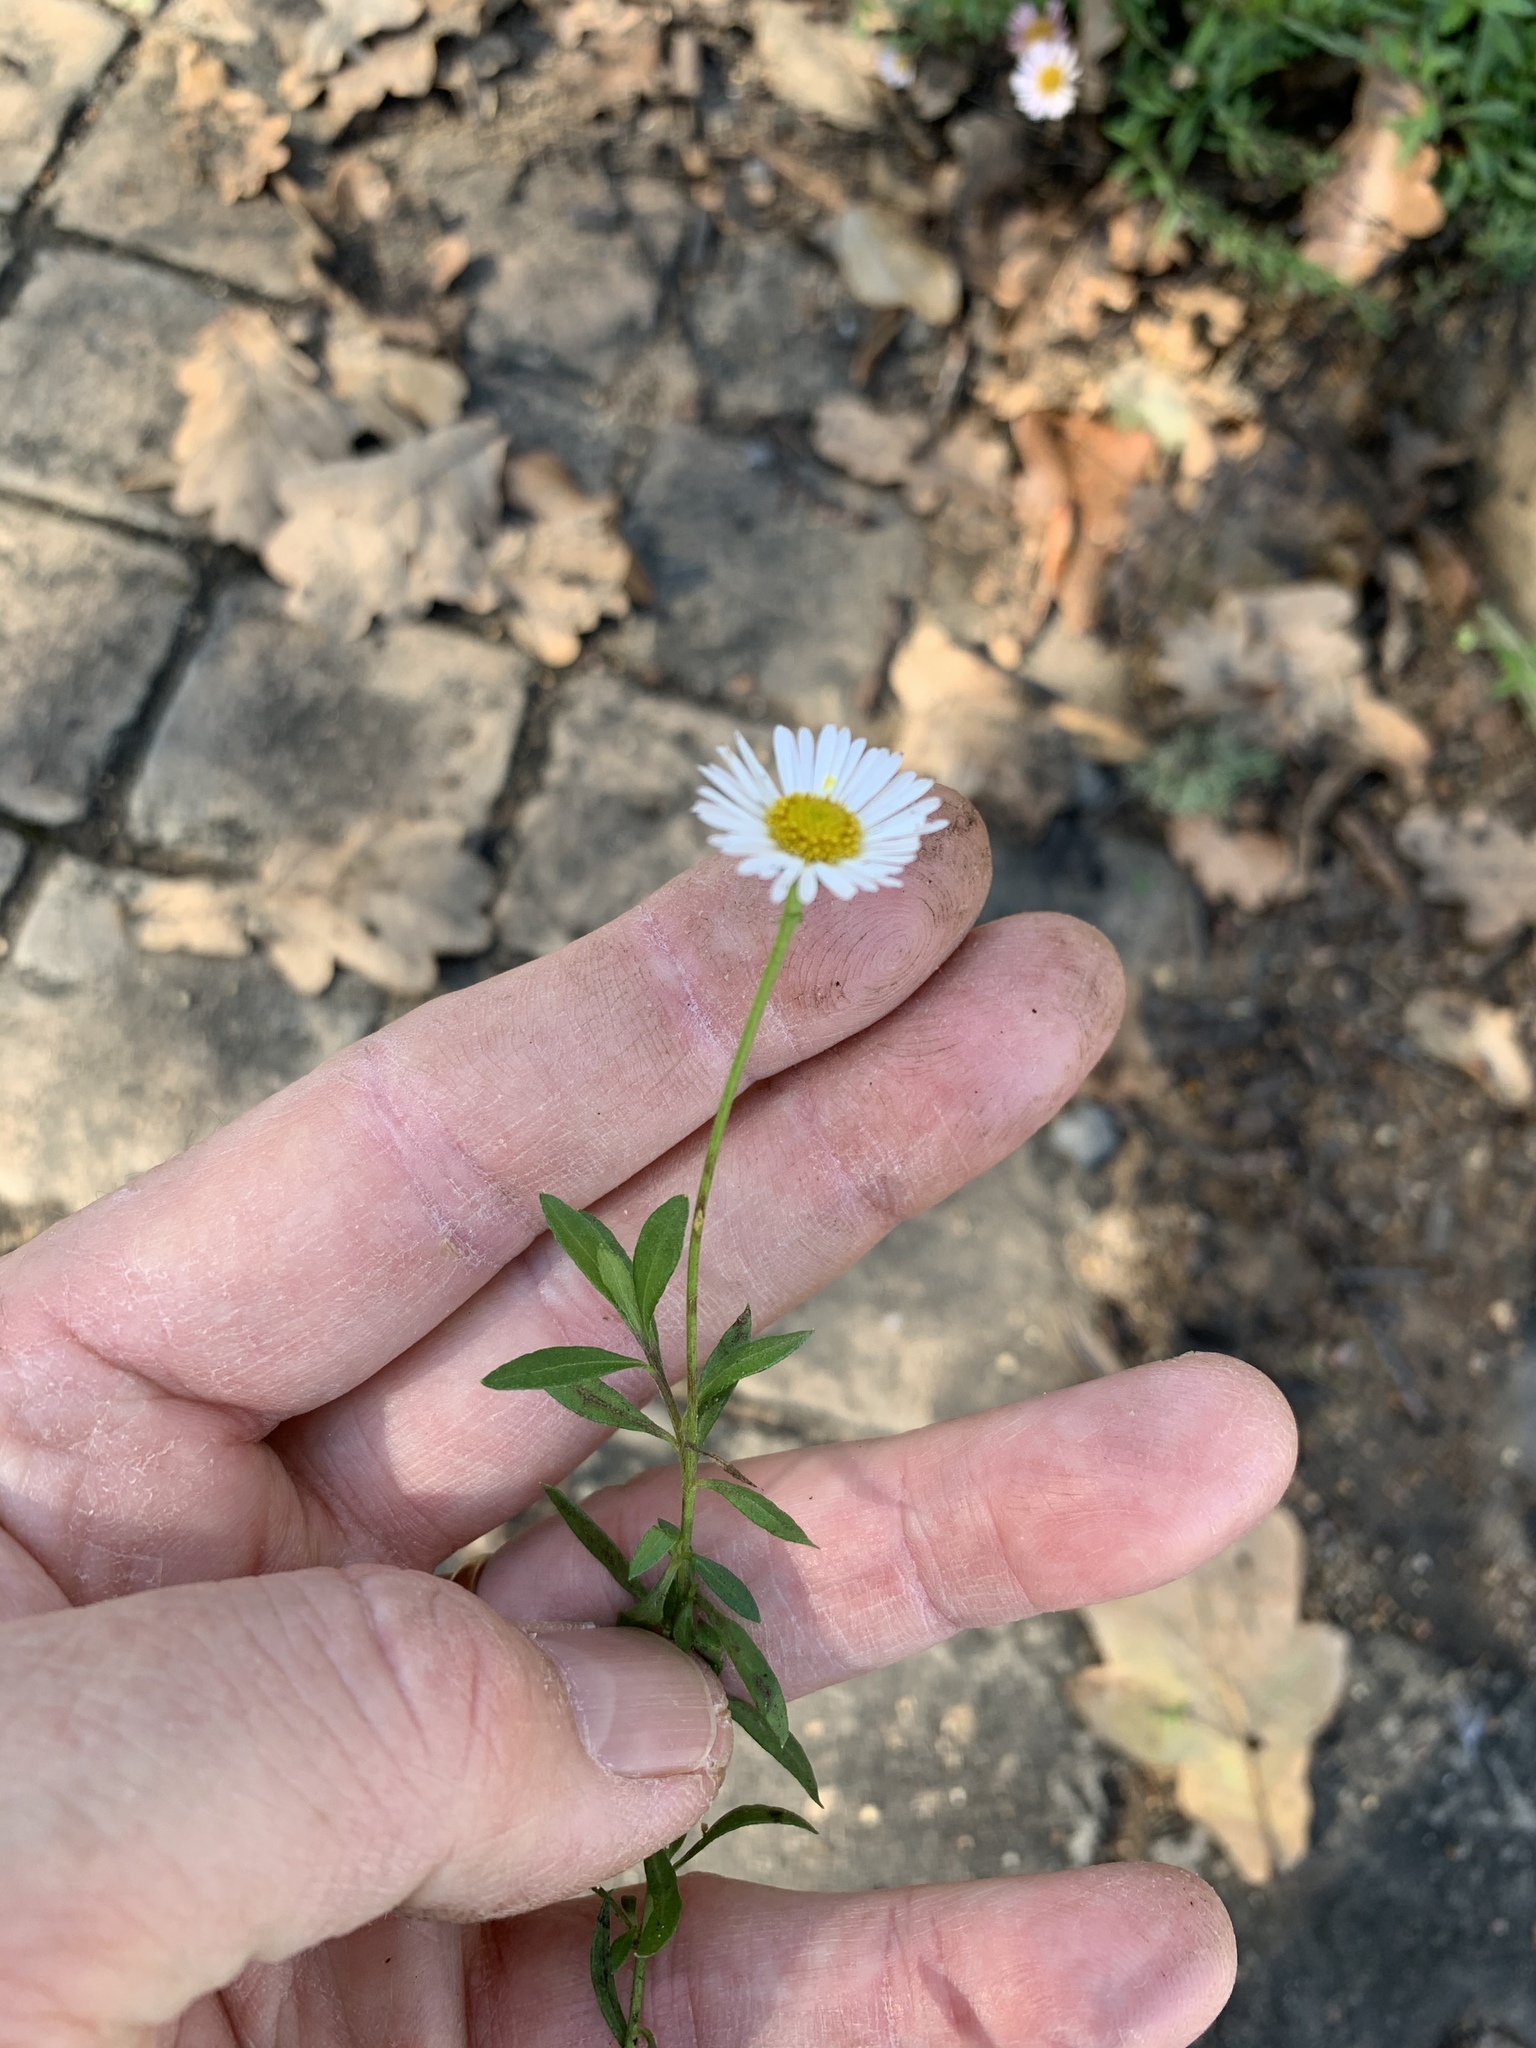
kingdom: Plantae
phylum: Tracheophyta
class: Magnoliopsida
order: Asterales
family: Asteraceae
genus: Erigeron
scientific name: Erigeron karvinskianus
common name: Mexican fleabane
